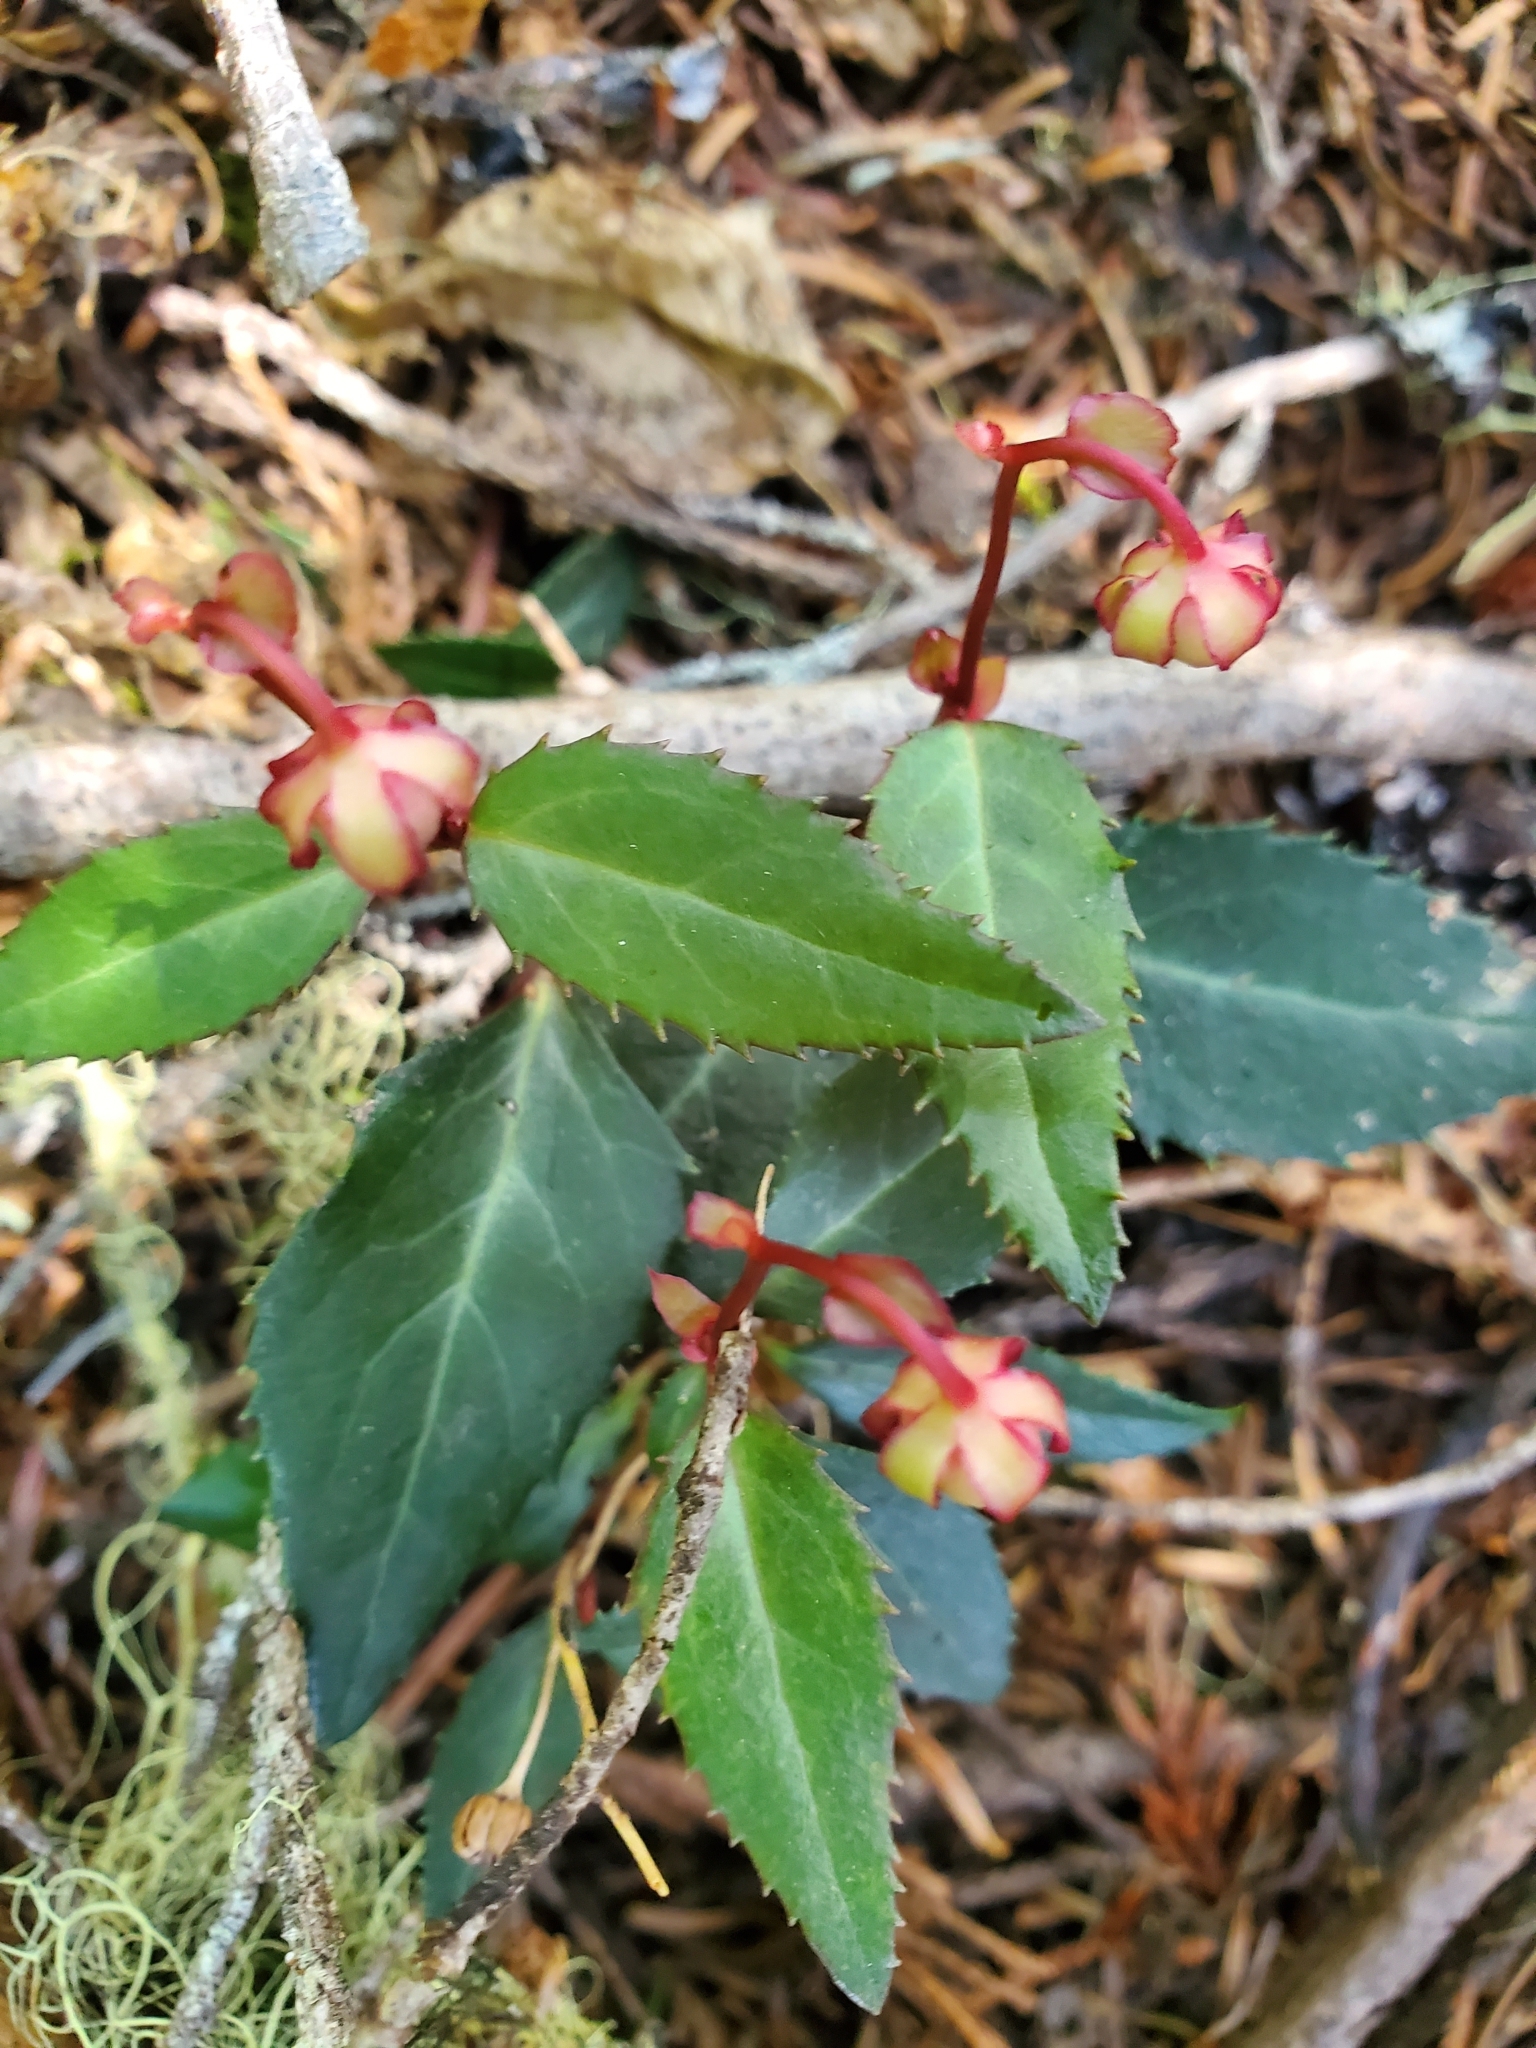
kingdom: Plantae
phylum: Tracheophyta
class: Magnoliopsida
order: Ericales
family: Ericaceae
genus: Chimaphila
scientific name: Chimaphila menziesii
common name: Menzies' pipsissewa
